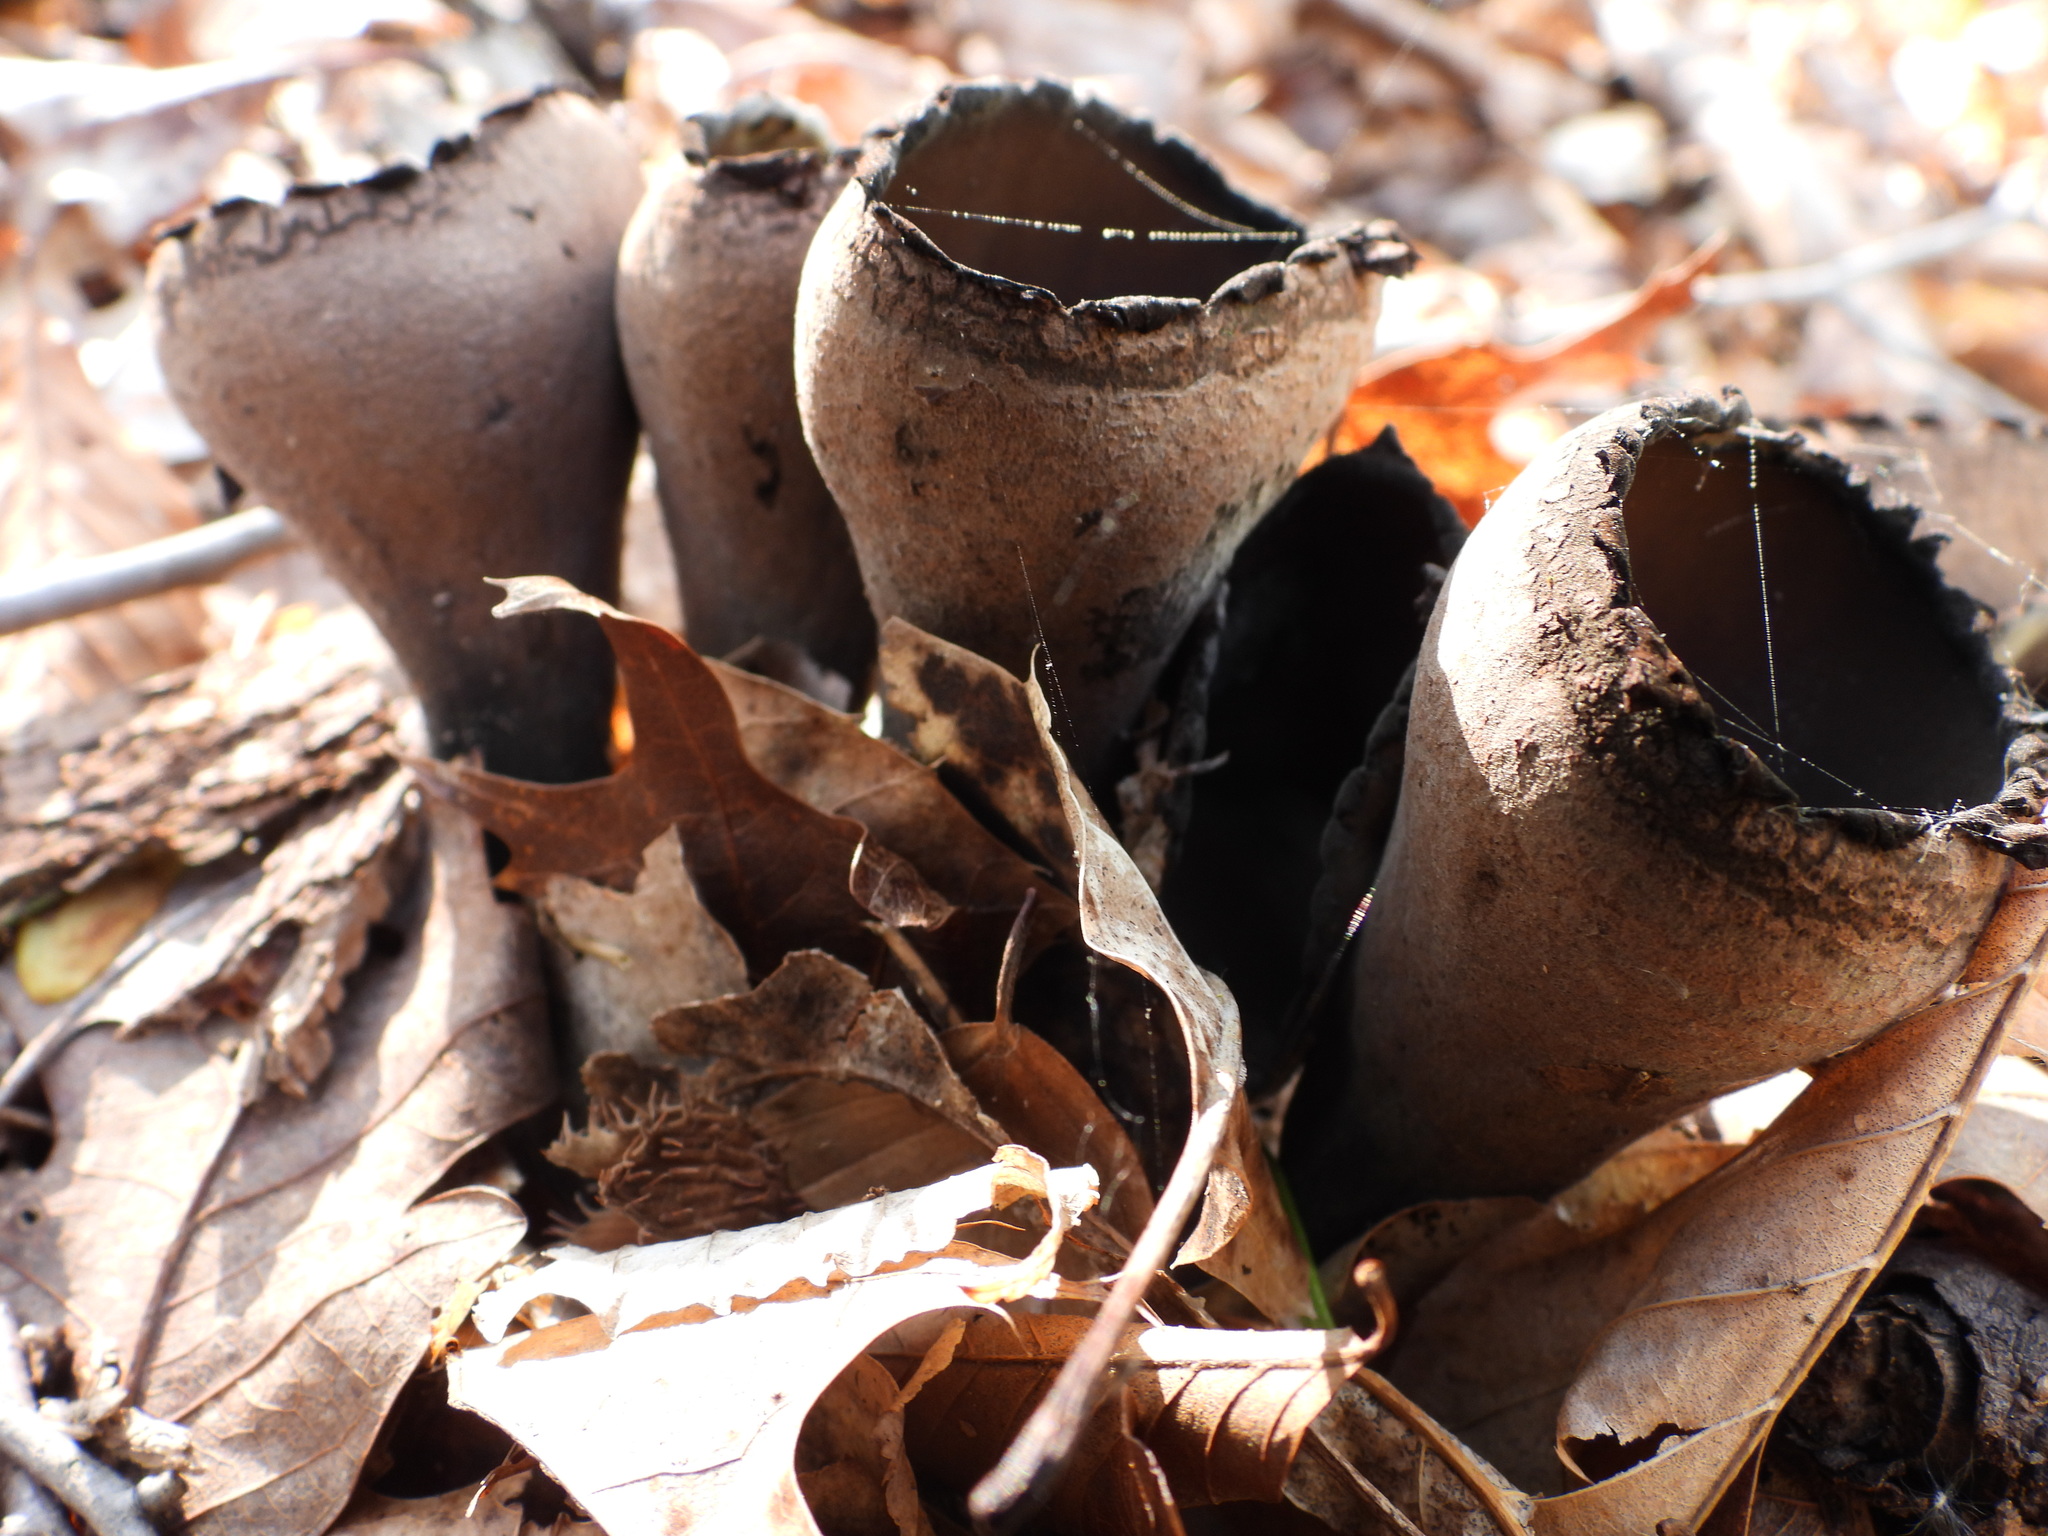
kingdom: Fungi
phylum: Ascomycota
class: Pezizomycetes
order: Pezizales
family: Sarcosomataceae
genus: Urnula
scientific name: Urnula craterium
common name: Devil's urn
